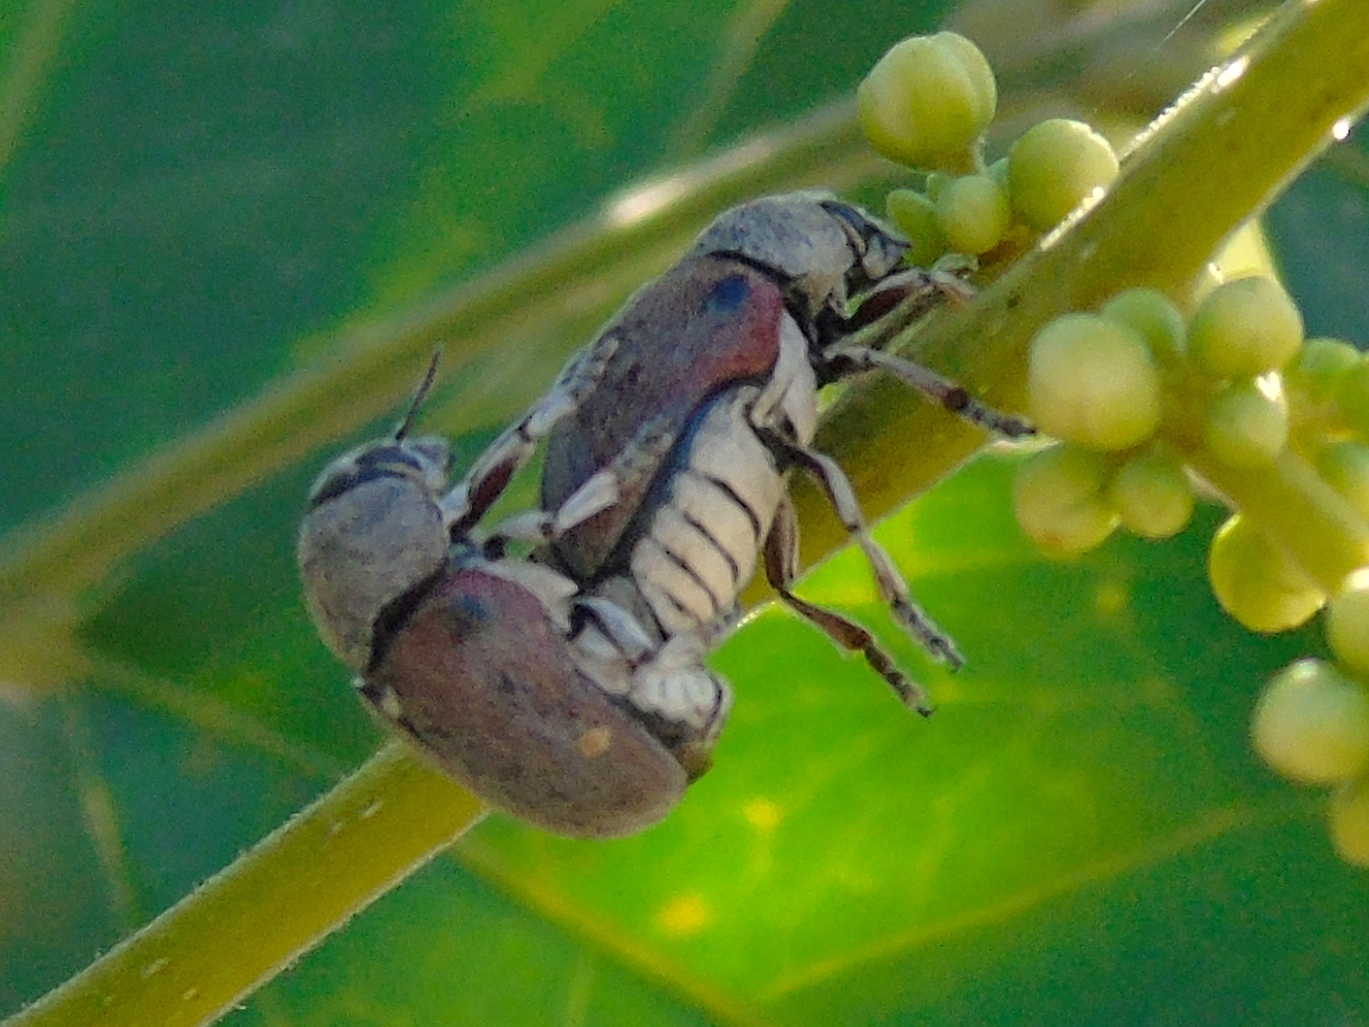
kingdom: Animalia
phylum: Arthropoda
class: Insecta
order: Coleoptera
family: Chrysomelidae
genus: Megalostomis
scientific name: Megalostomis dimidiata
